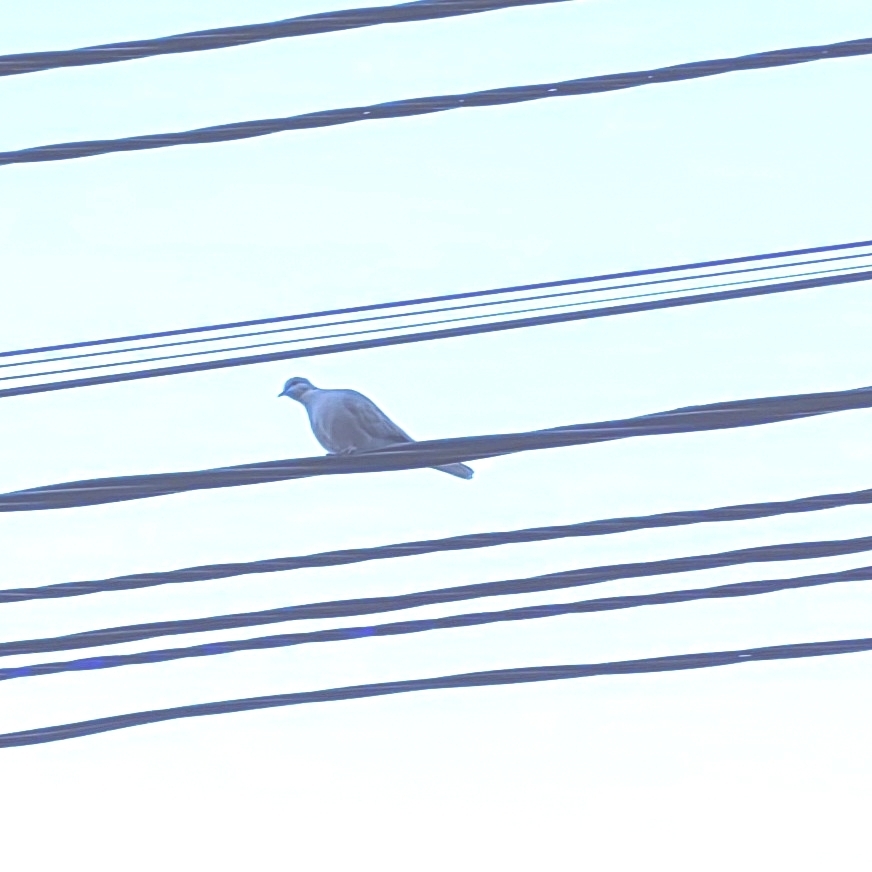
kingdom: Animalia
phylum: Chordata
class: Aves
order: Columbiformes
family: Columbidae
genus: Streptopelia
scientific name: Streptopelia decaocto
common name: Eurasian collared dove
